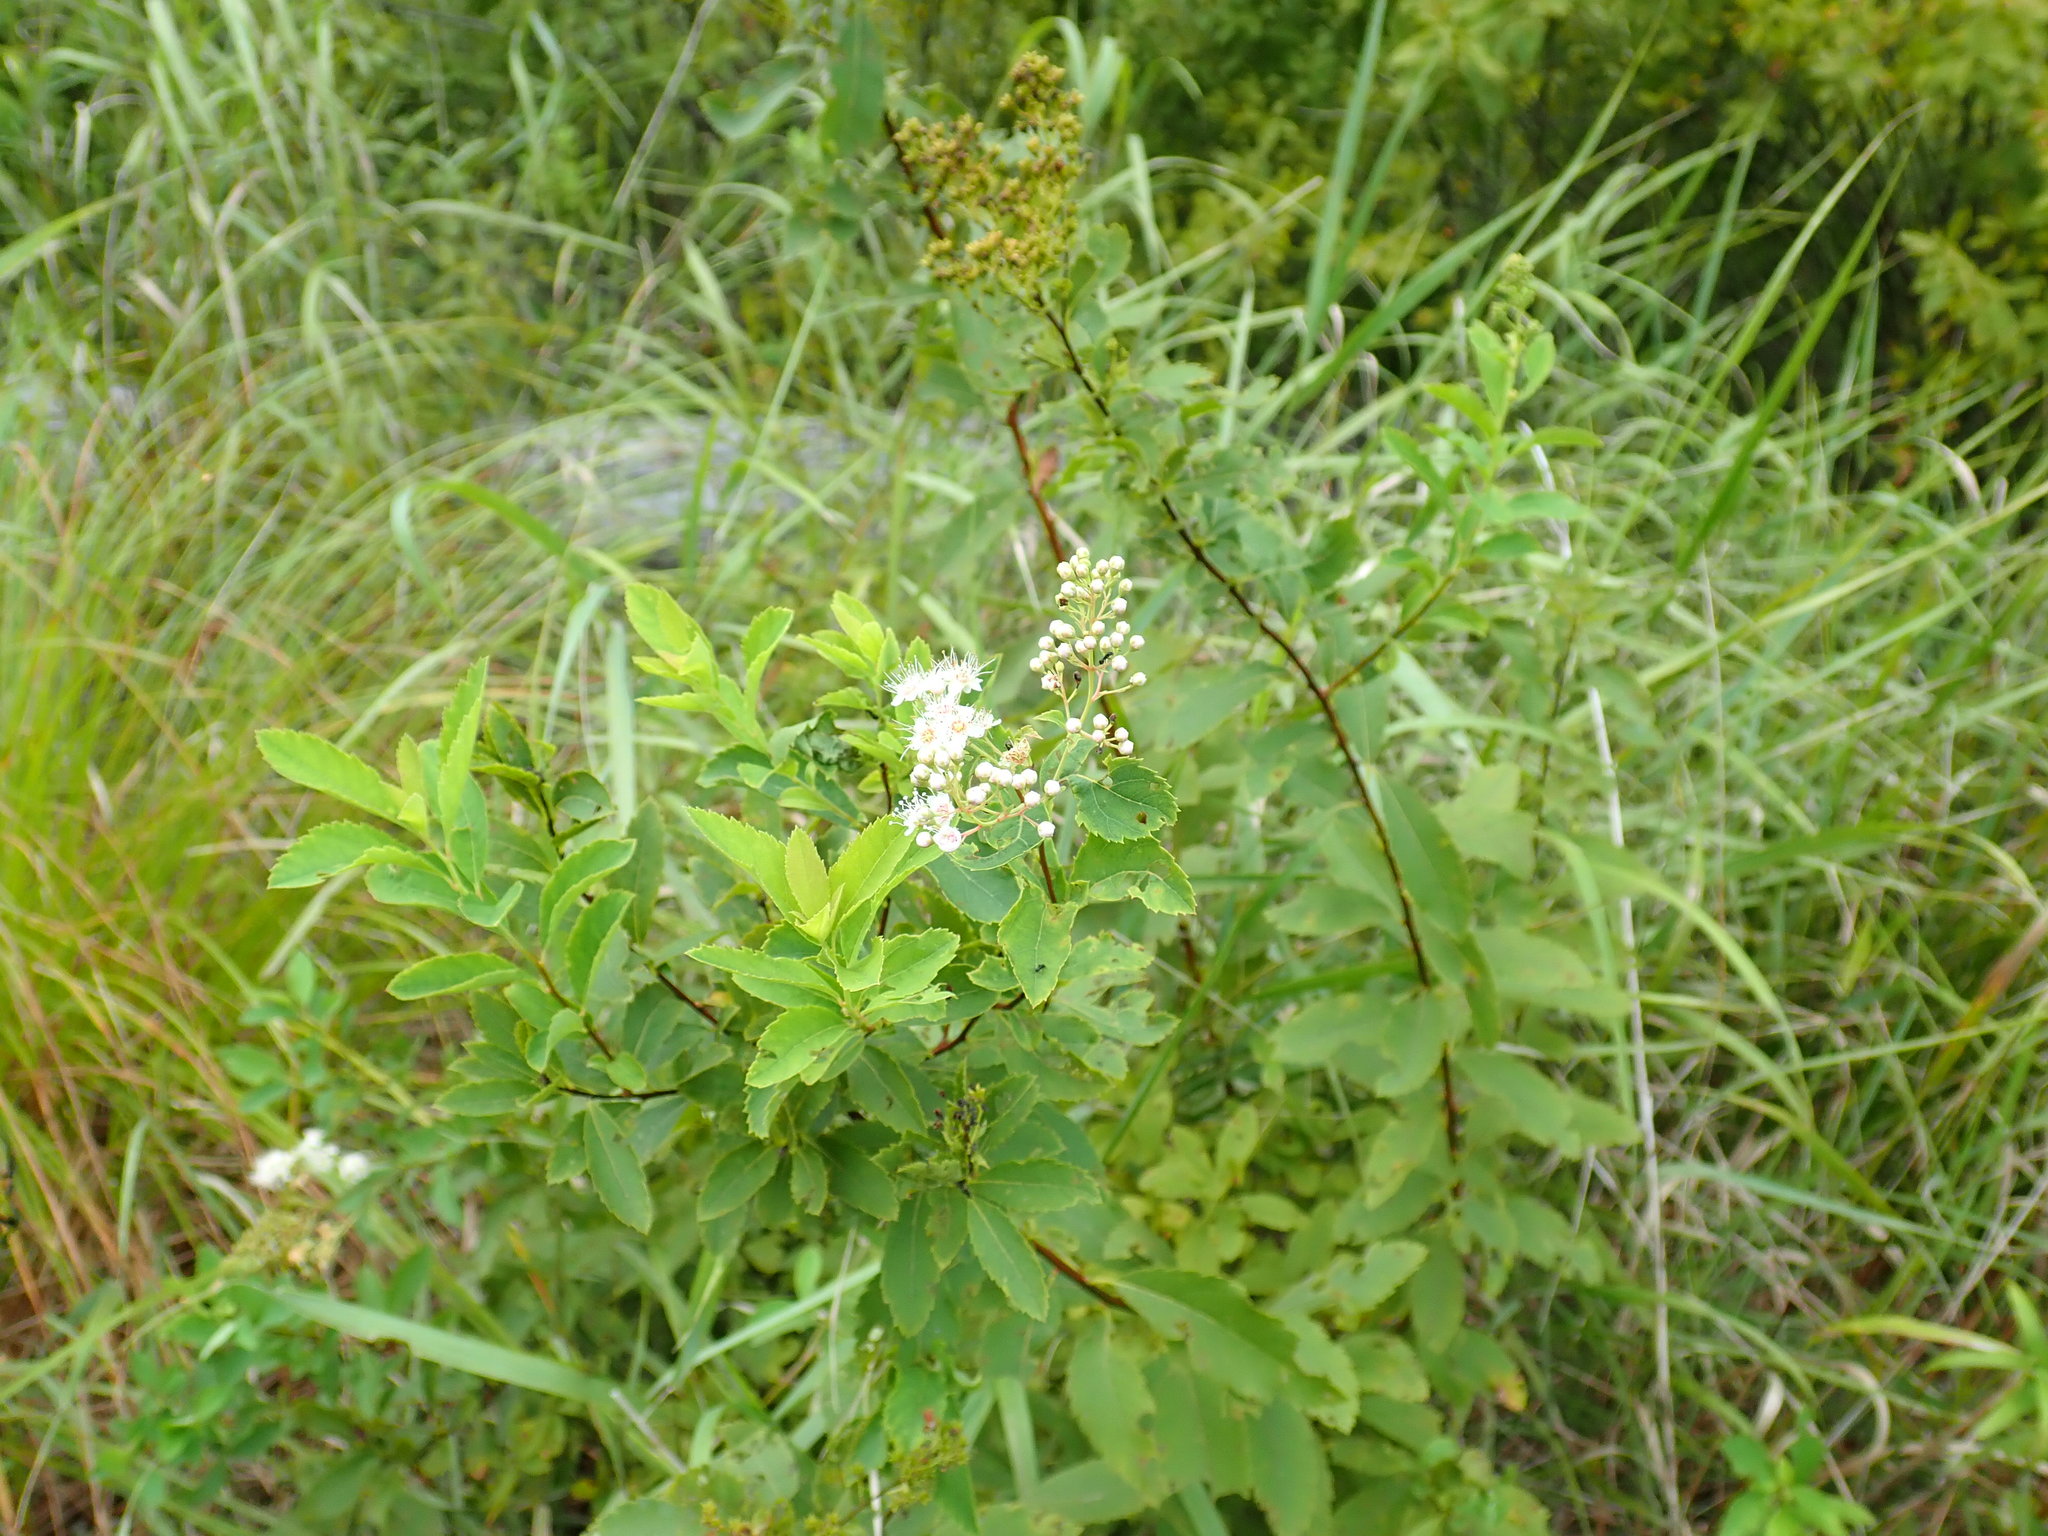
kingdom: Plantae
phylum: Tracheophyta
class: Magnoliopsida
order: Rosales
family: Rosaceae
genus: Spiraea
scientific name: Spiraea alba
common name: Pale bridewort
